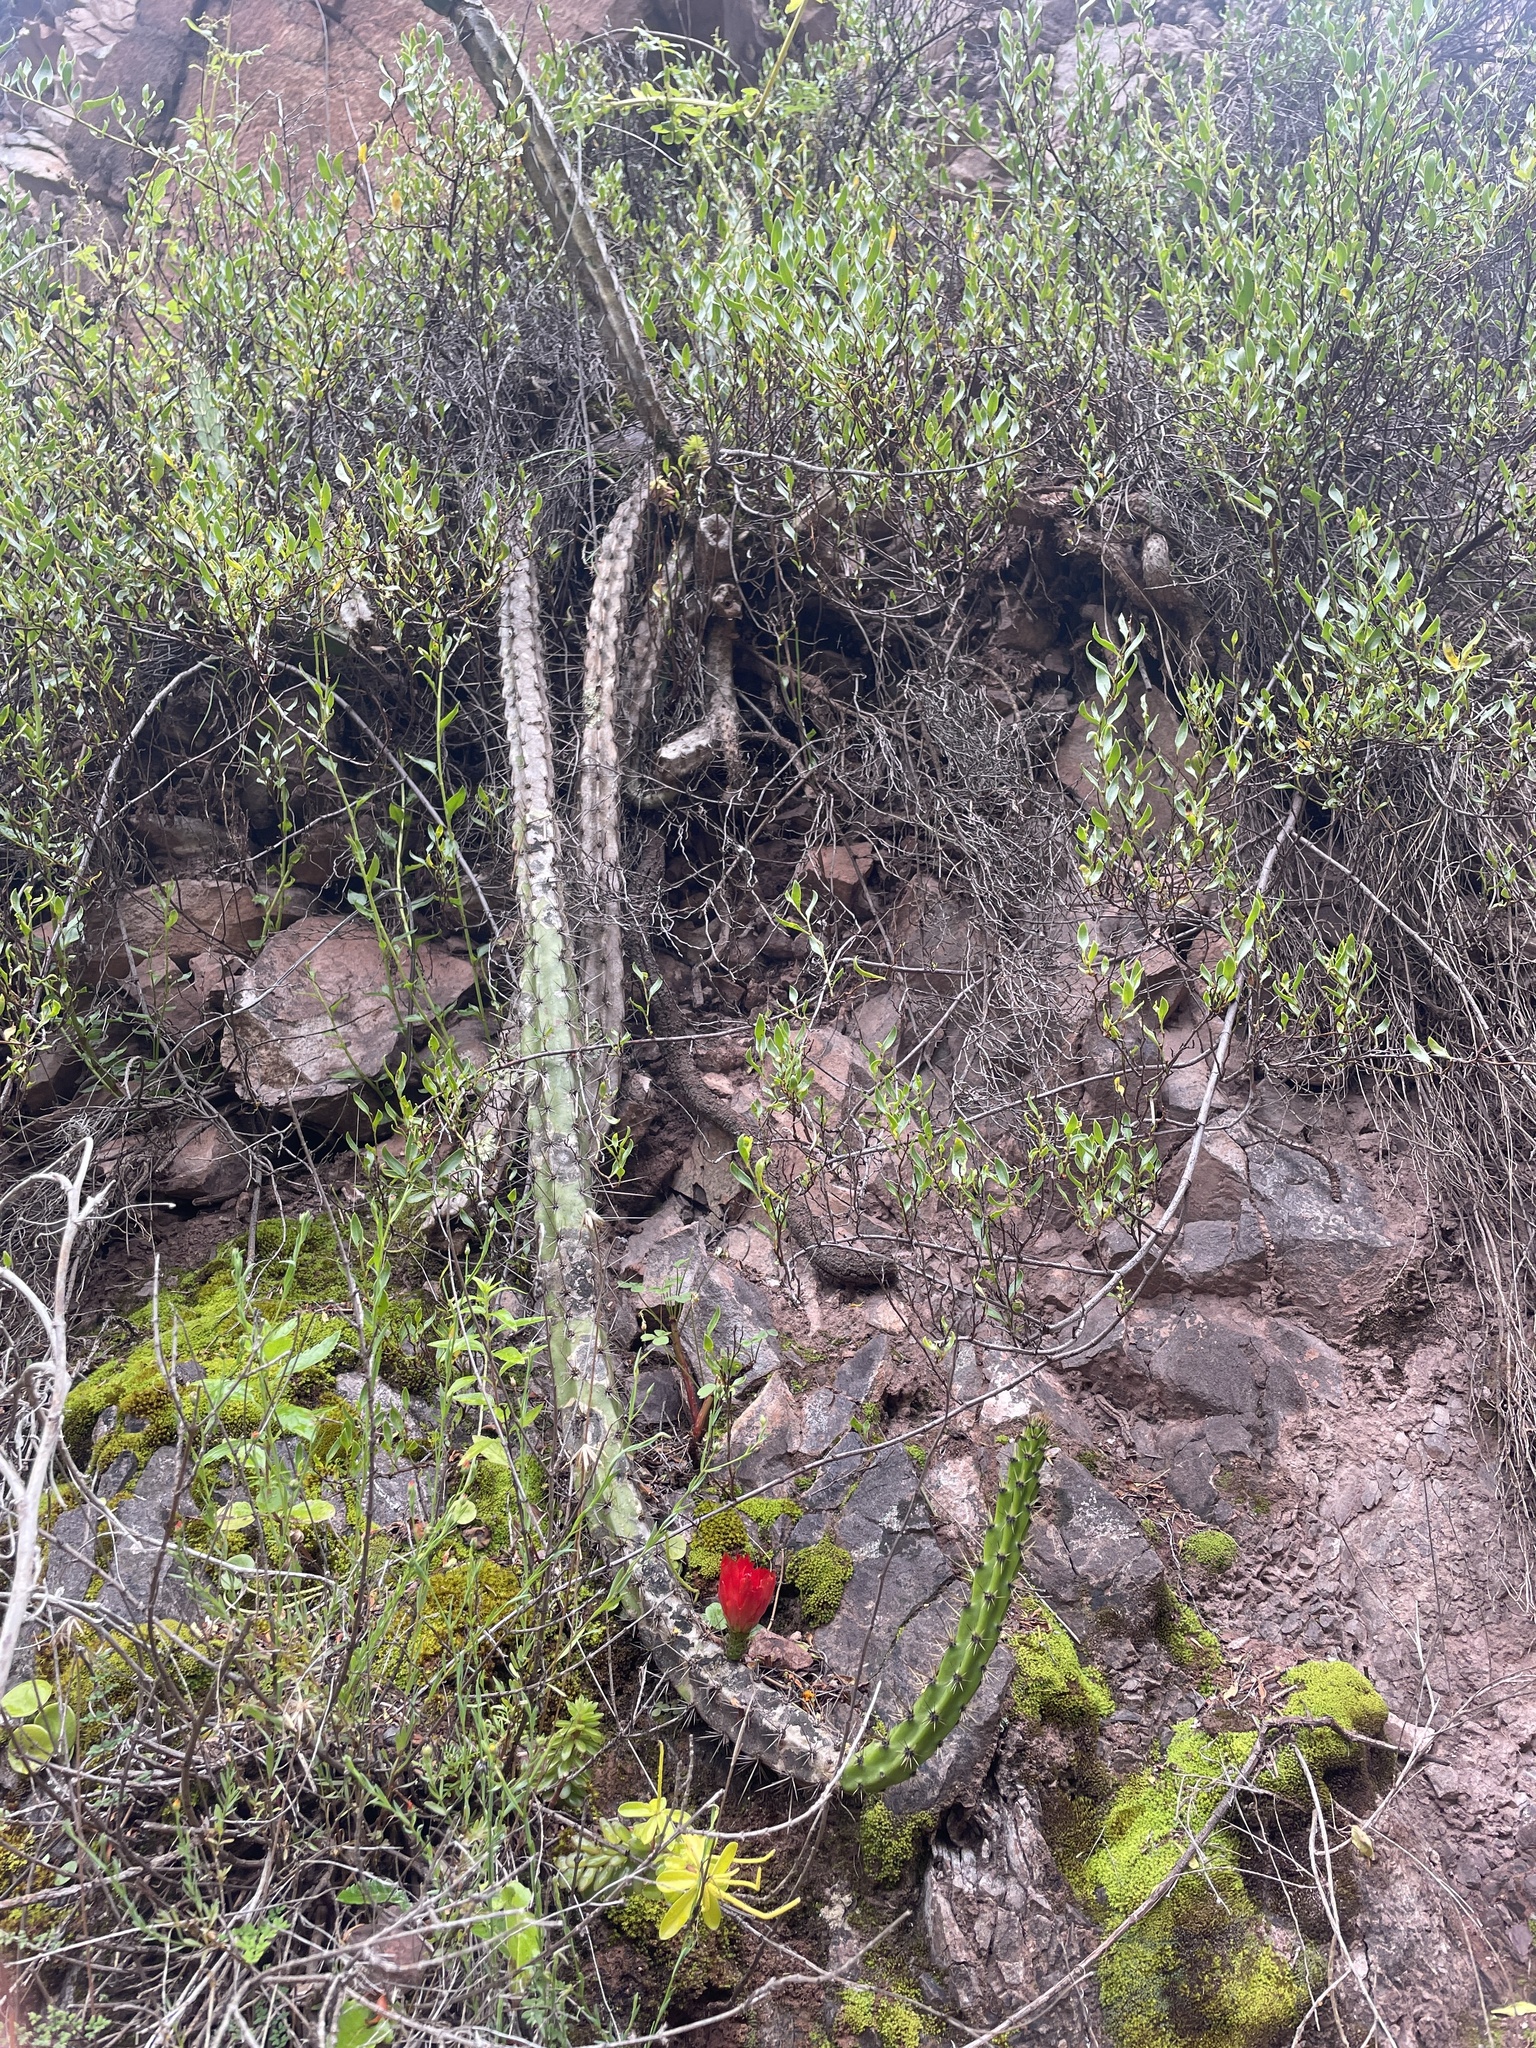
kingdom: Plantae
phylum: Tracheophyta
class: Magnoliopsida
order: Caryophyllales
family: Cactaceae
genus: Corryocactus
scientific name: Corryocactus erectus
